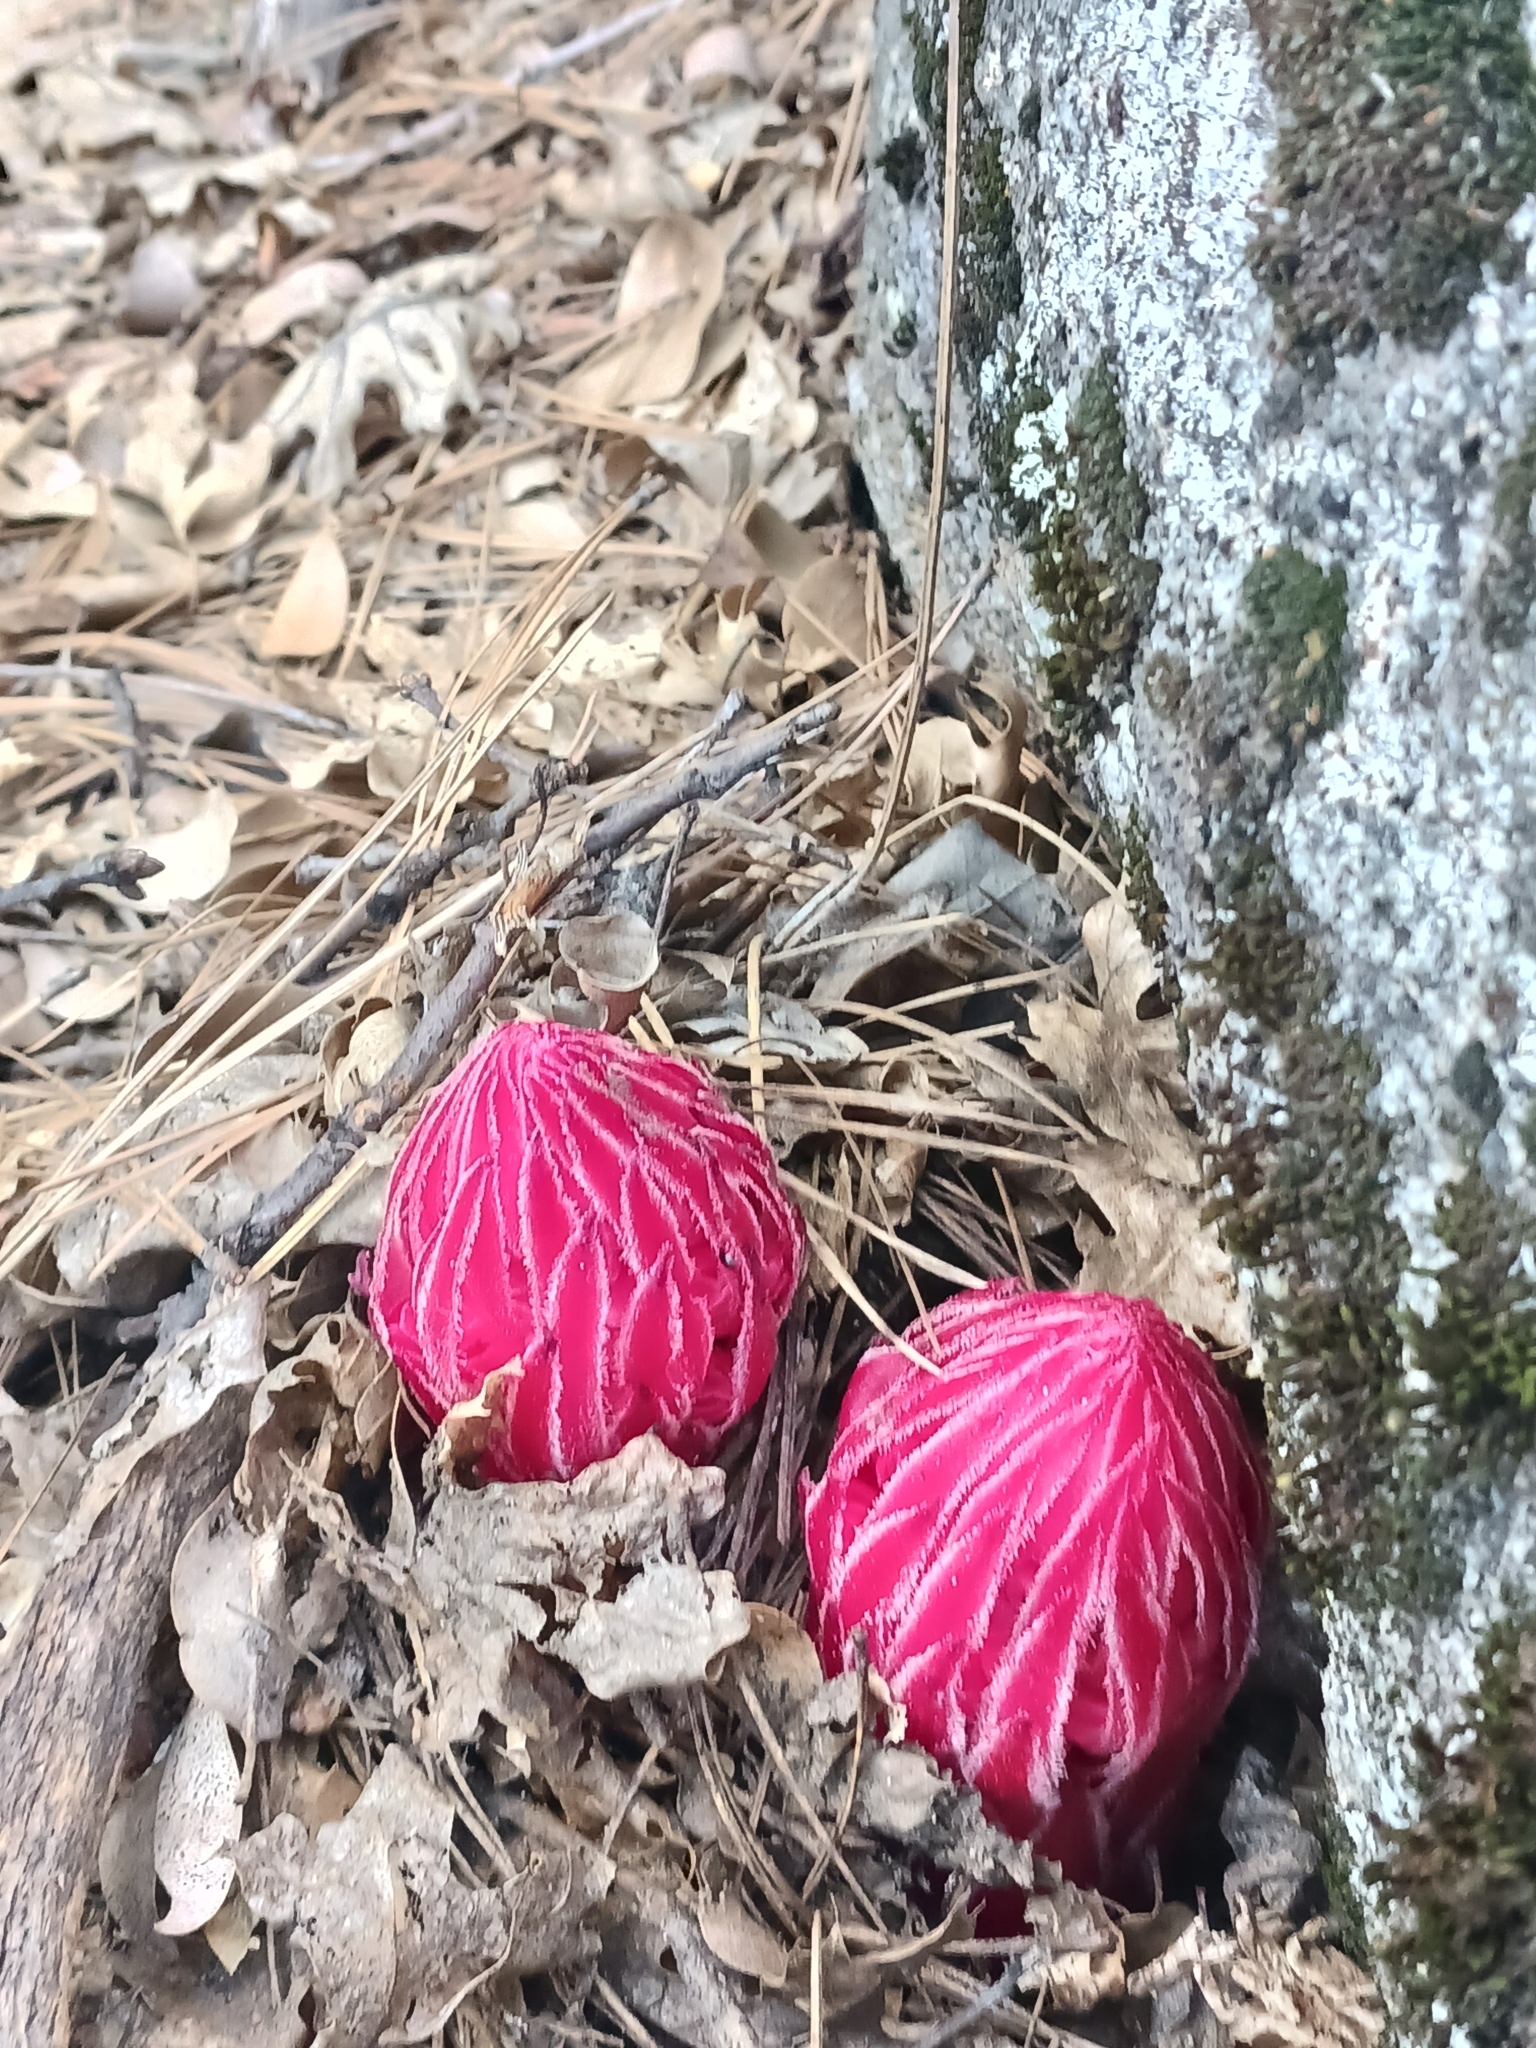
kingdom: Plantae
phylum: Tracheophyta
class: Magnoliopsida
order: Ericales
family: Ericaceae
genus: Sarcodes
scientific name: Sarcodes sanguinea
